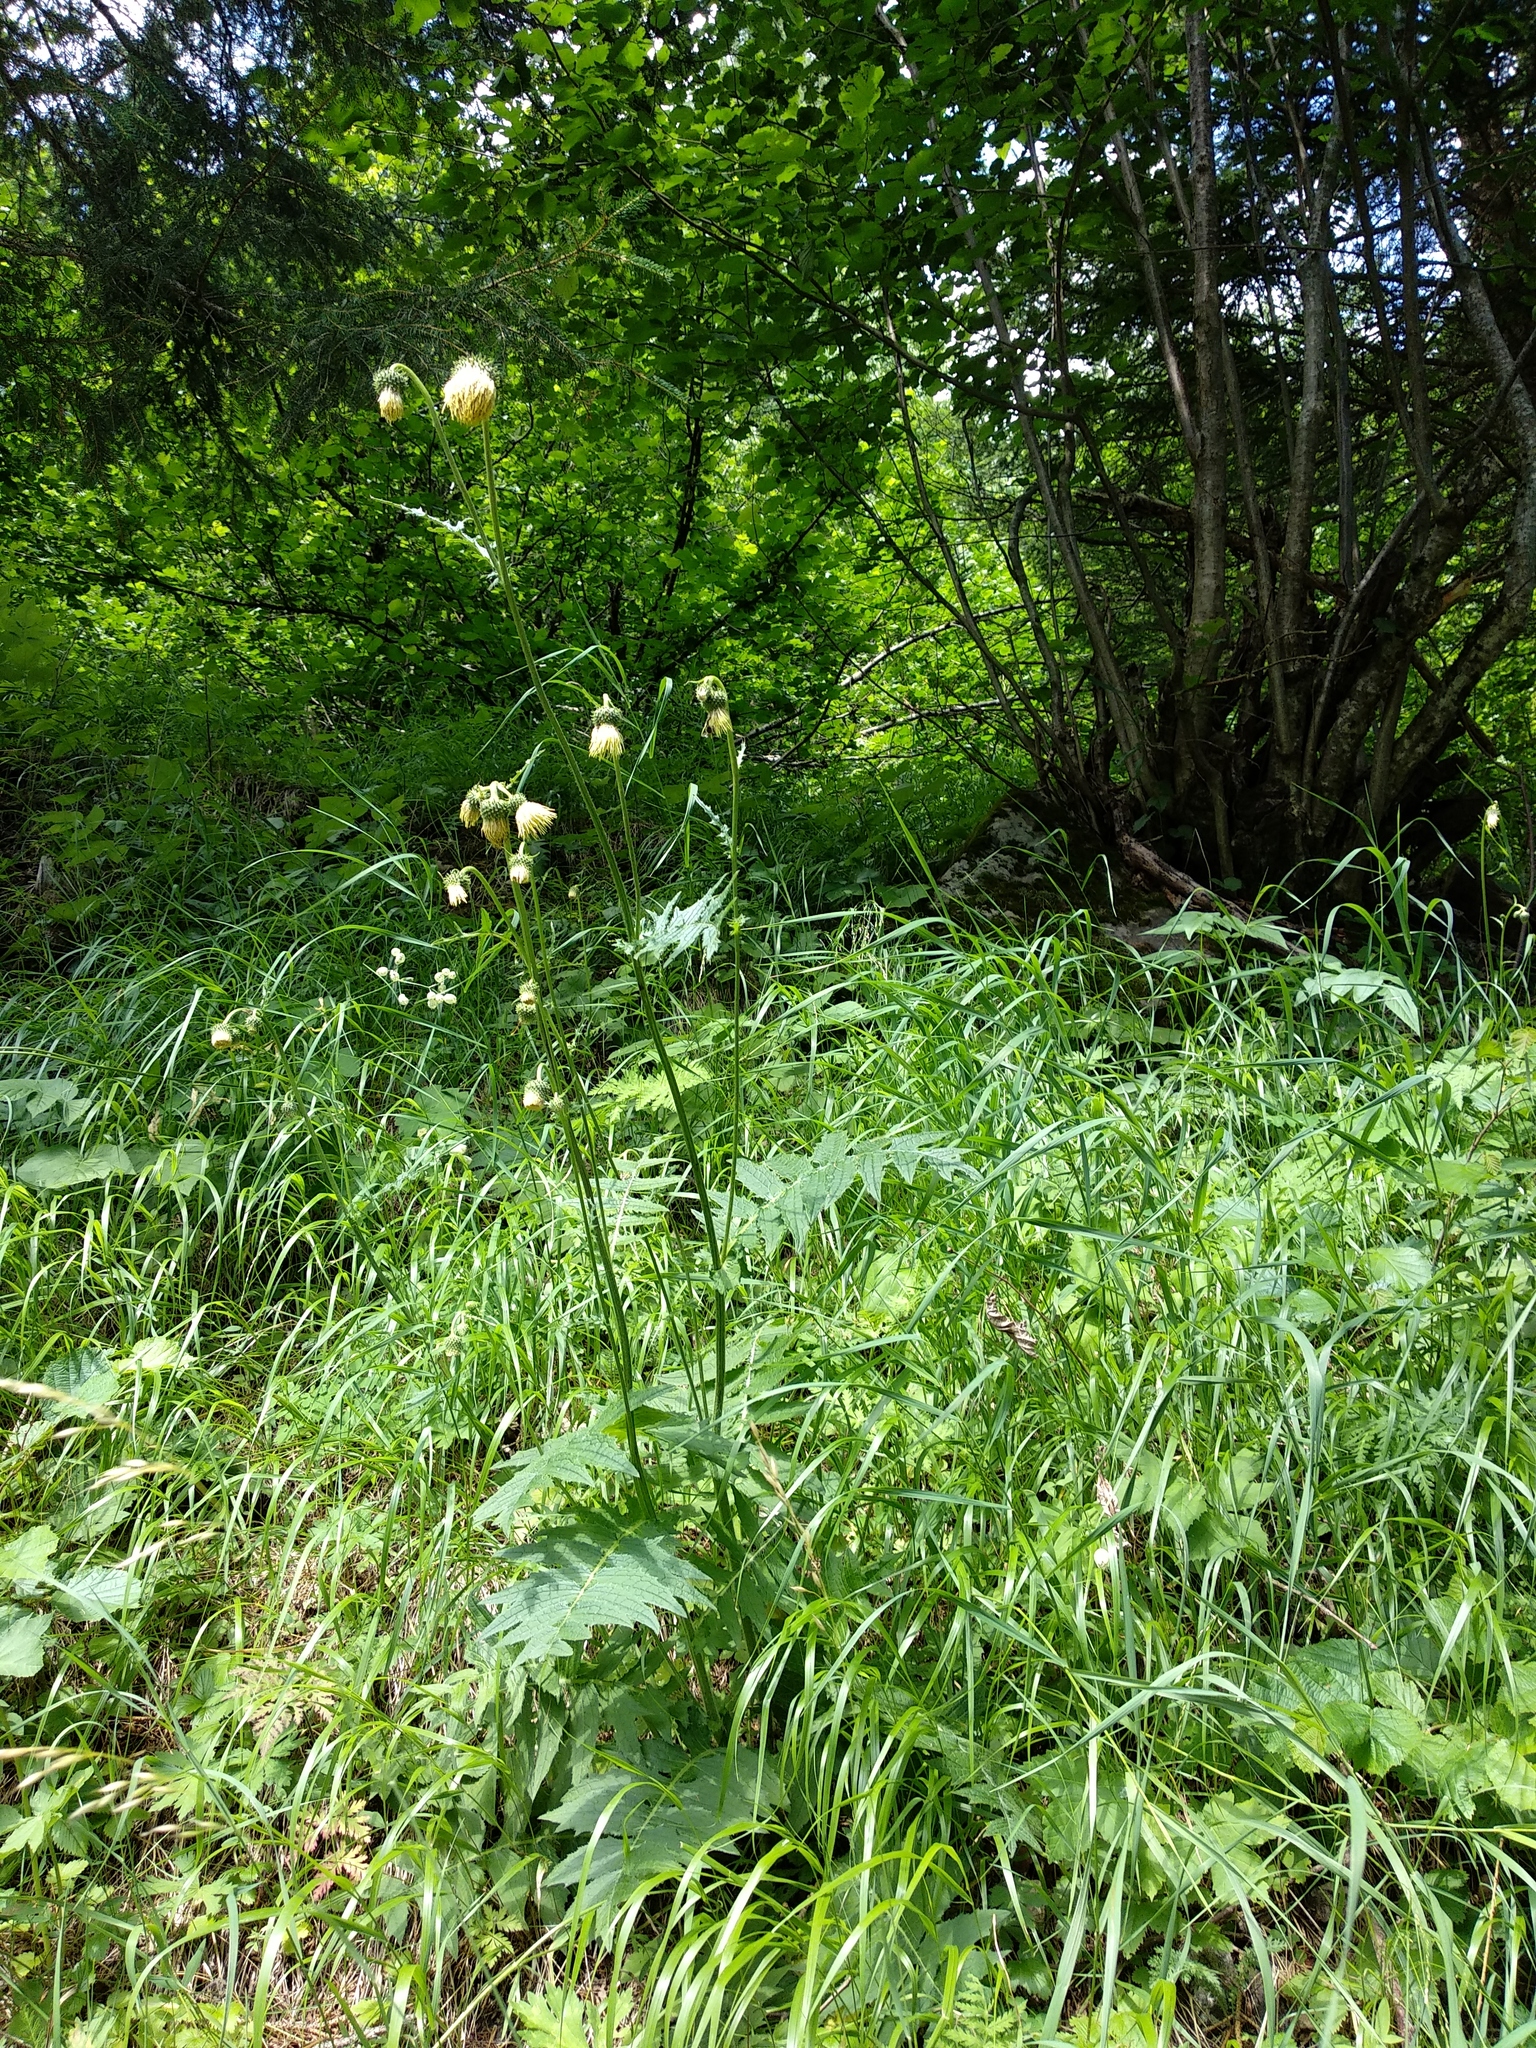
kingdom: Plantae
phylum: Tracheophyta
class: Magnoliopsida
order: Asterales
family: Asteraceae
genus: Cirsium
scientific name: Cirsium erisithales
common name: Yellow thistle
